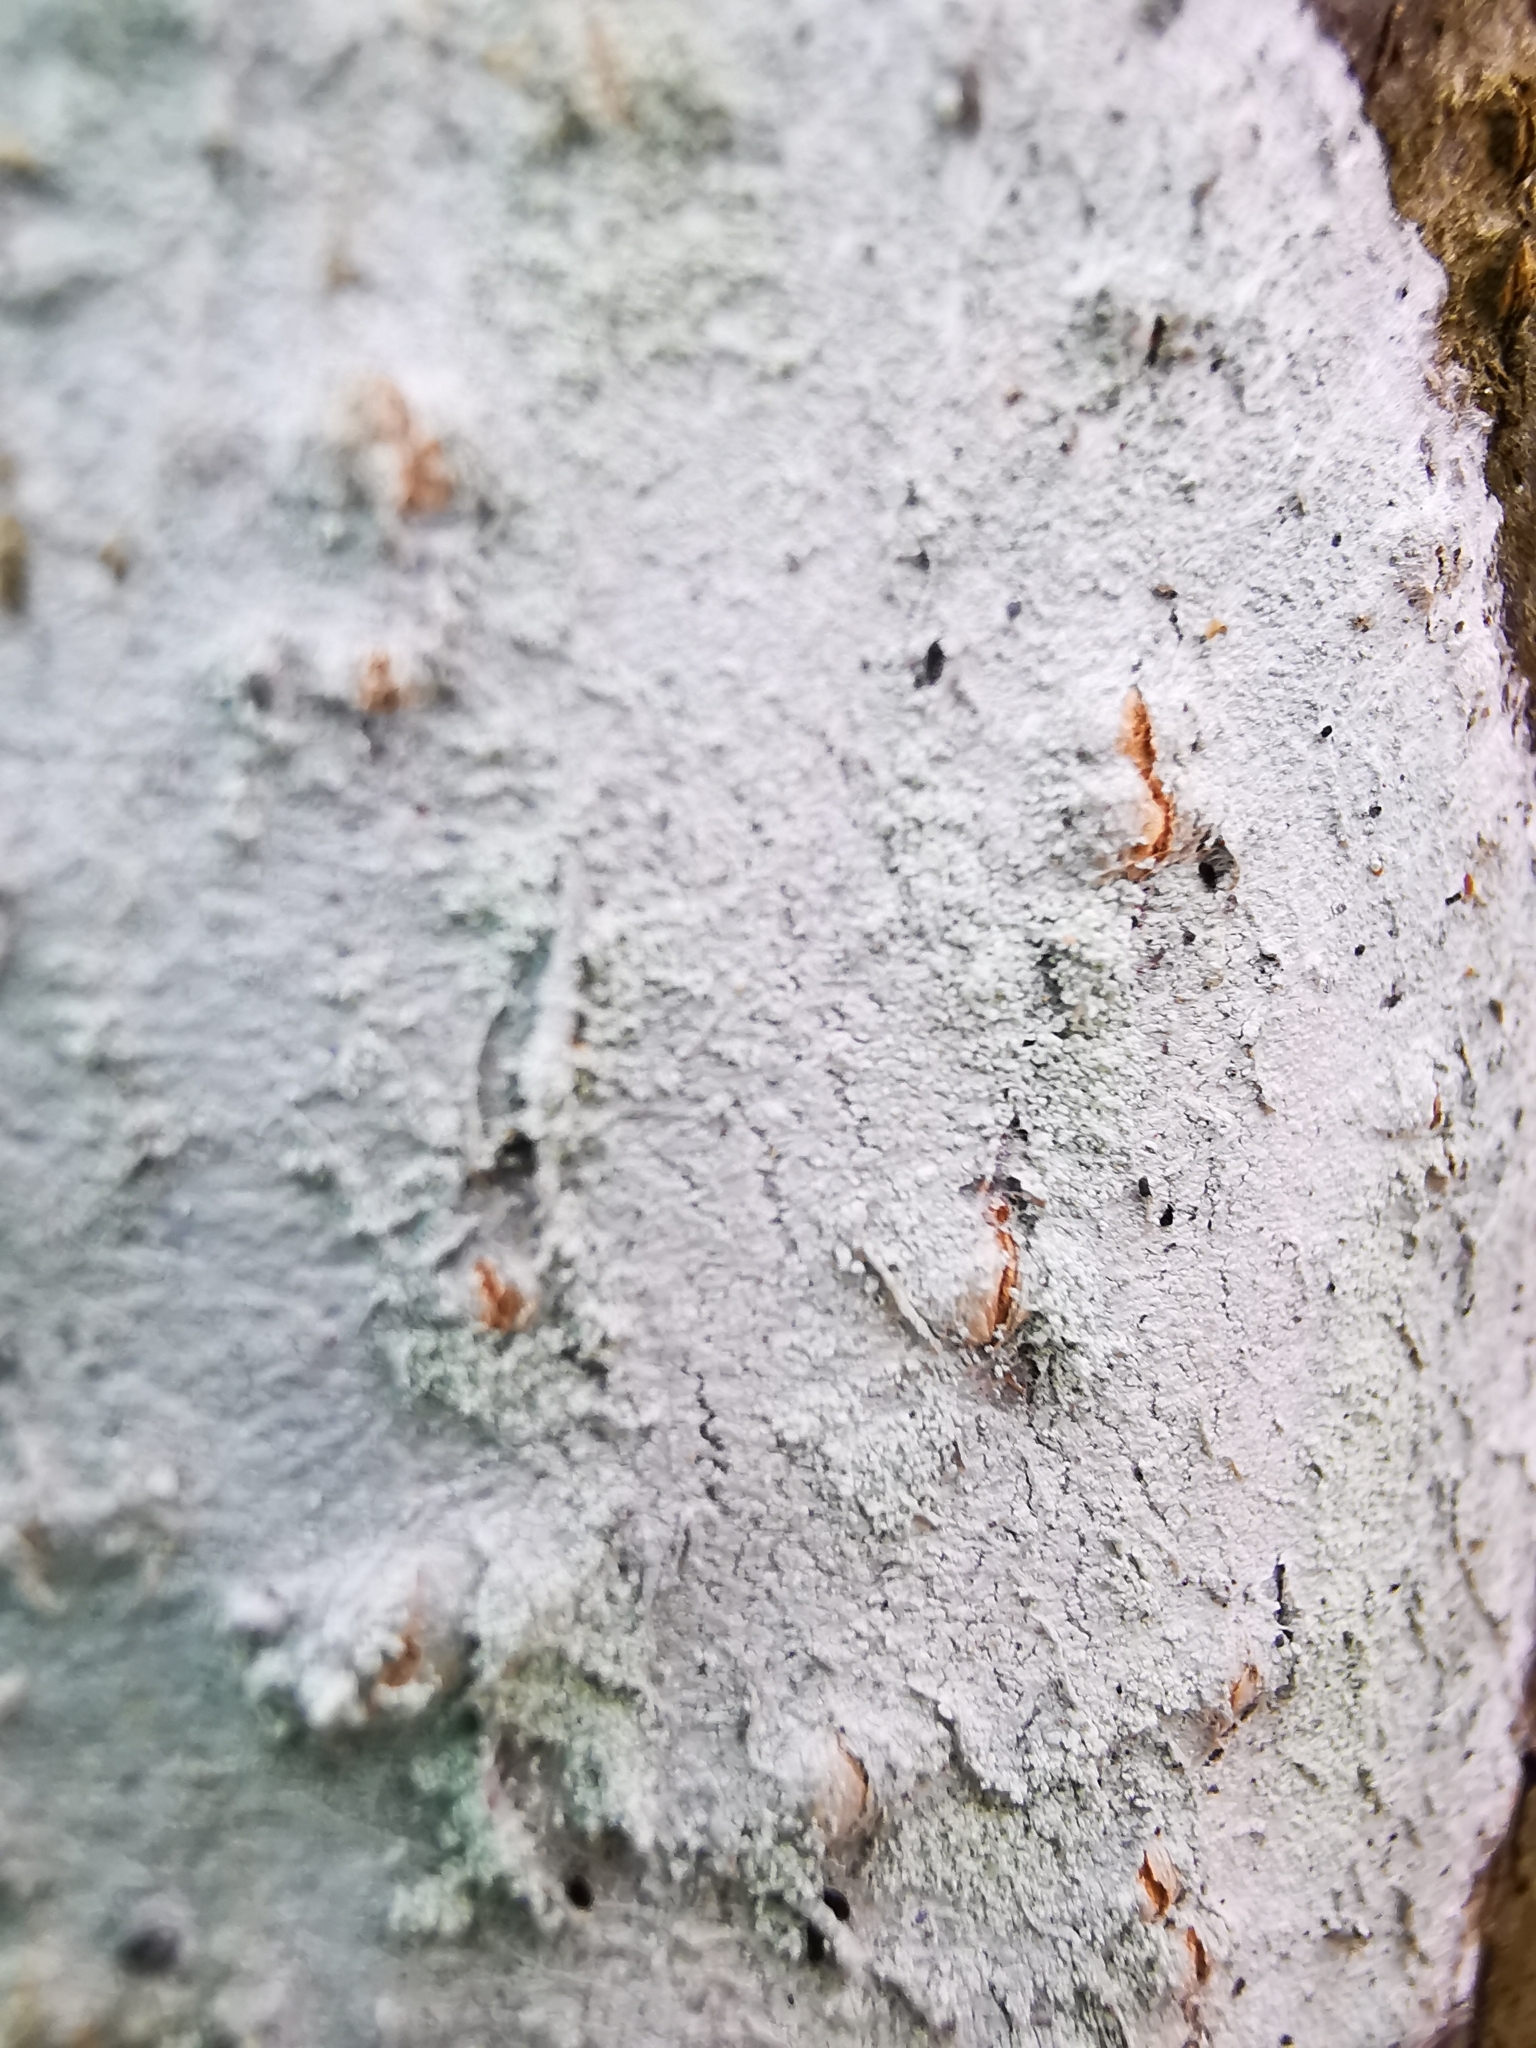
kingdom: Fungi
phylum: Ascomycota
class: Lecanoromycetes
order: Ostropales
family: Phlyctidaceae
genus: Phlyctis
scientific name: Phlyctis argena
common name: Whitewash lichen
